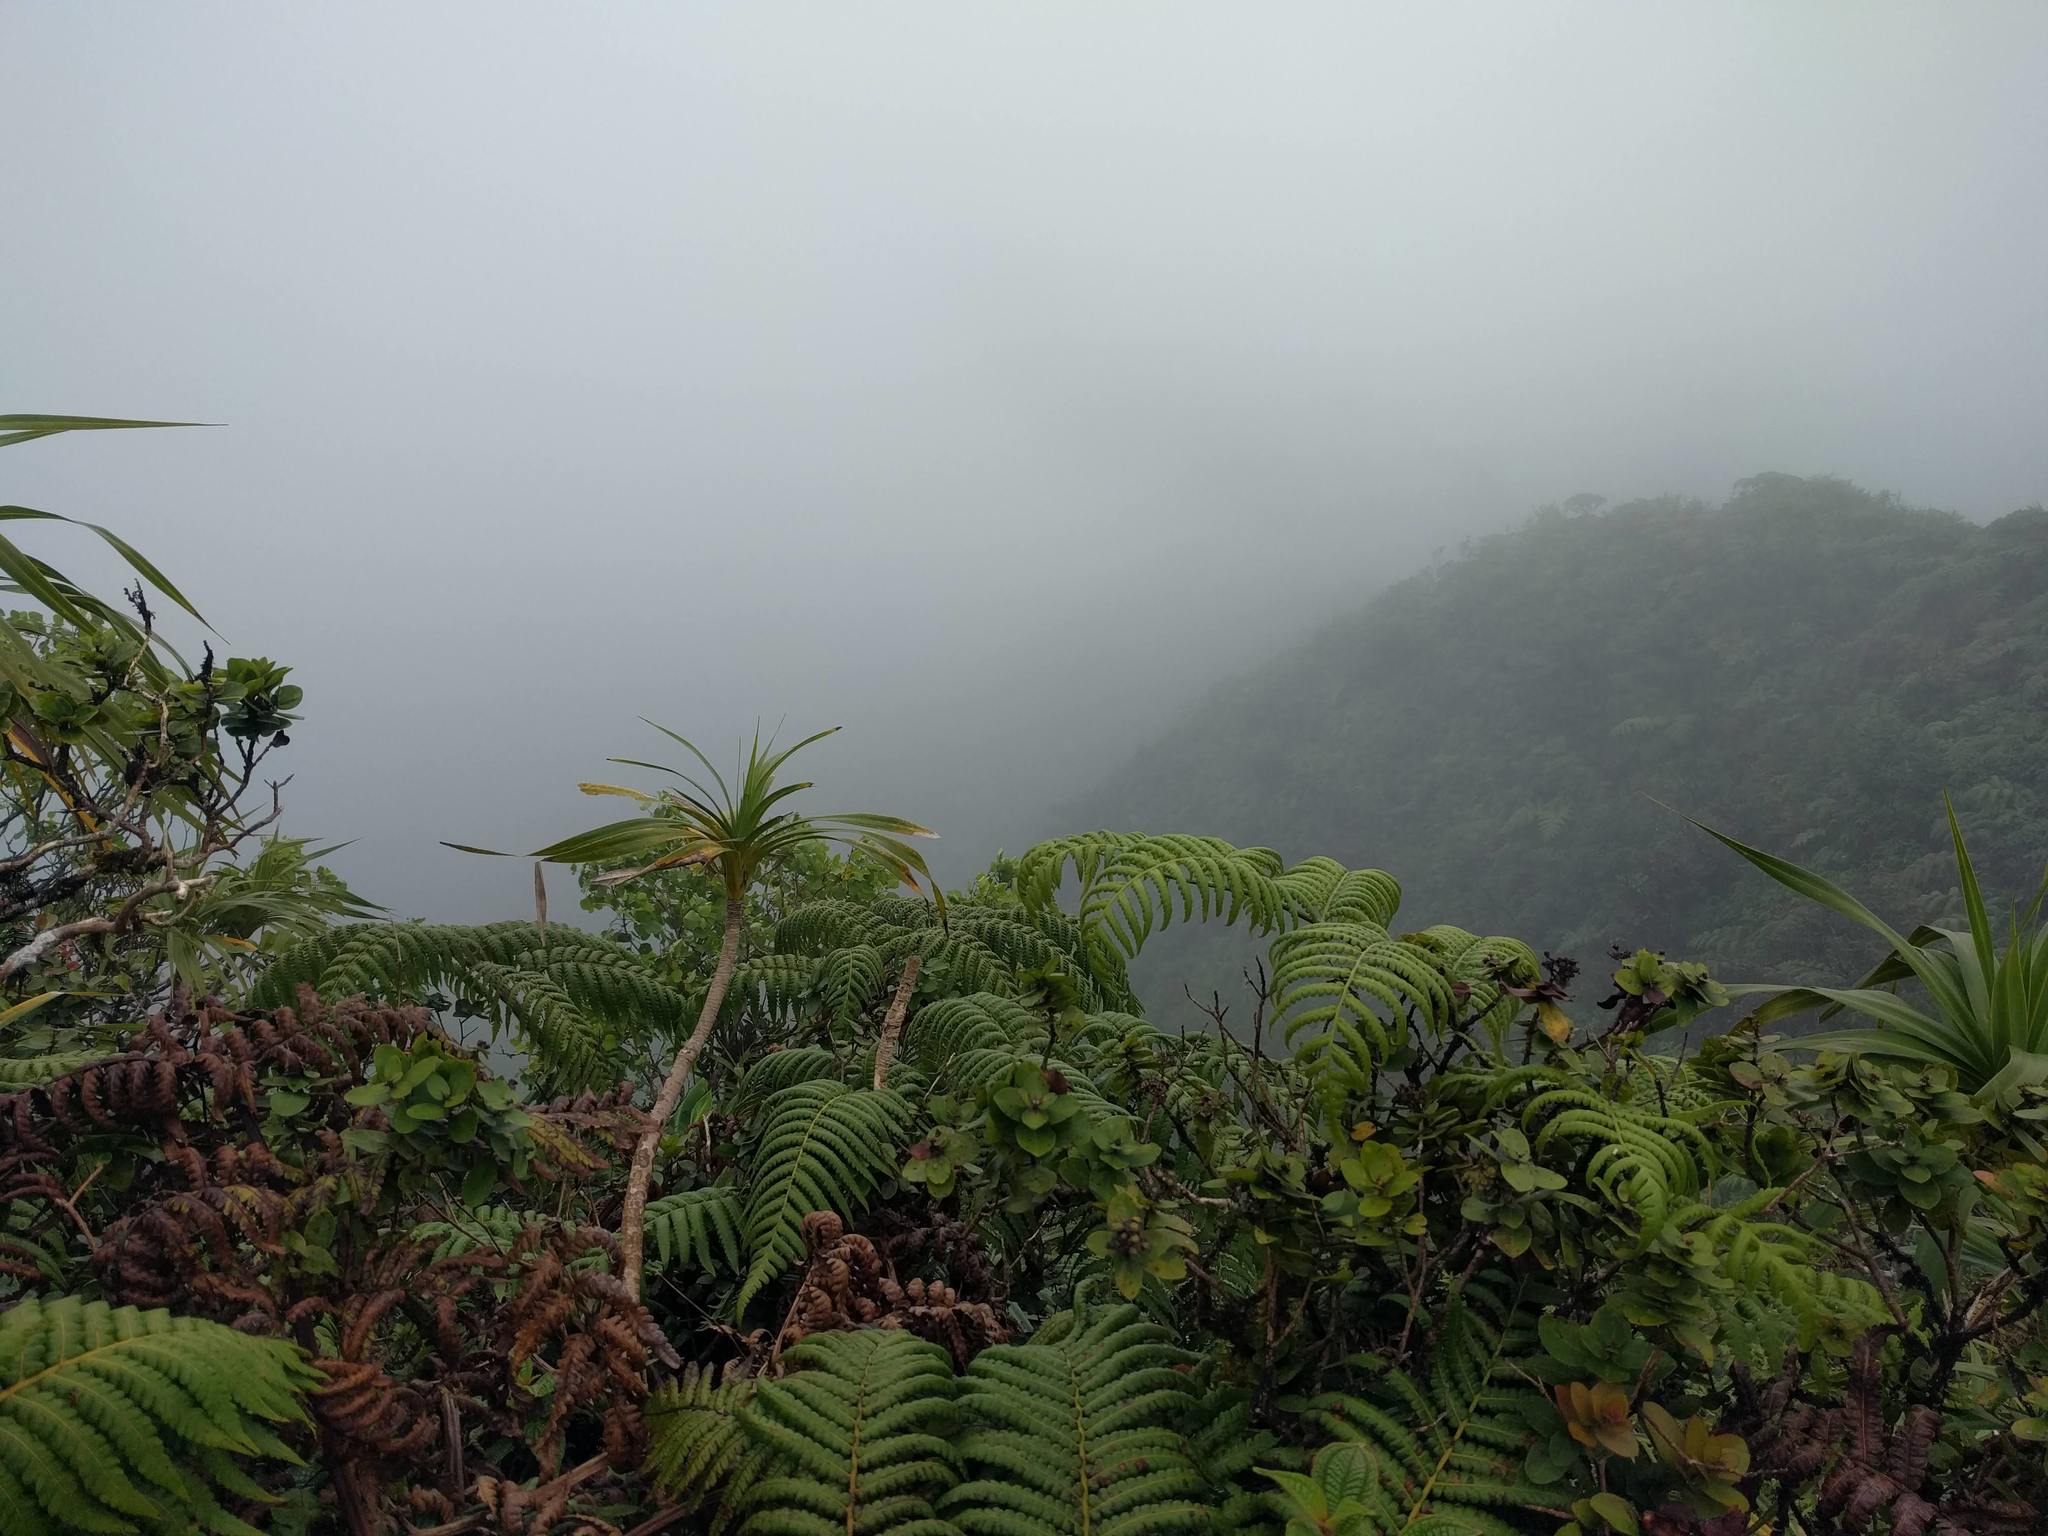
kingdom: Plantae
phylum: Tracheophyta
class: Liliopsida
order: Pandanales
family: Pandanaceae
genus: Freycinetia
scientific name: Freycinetia arborea
